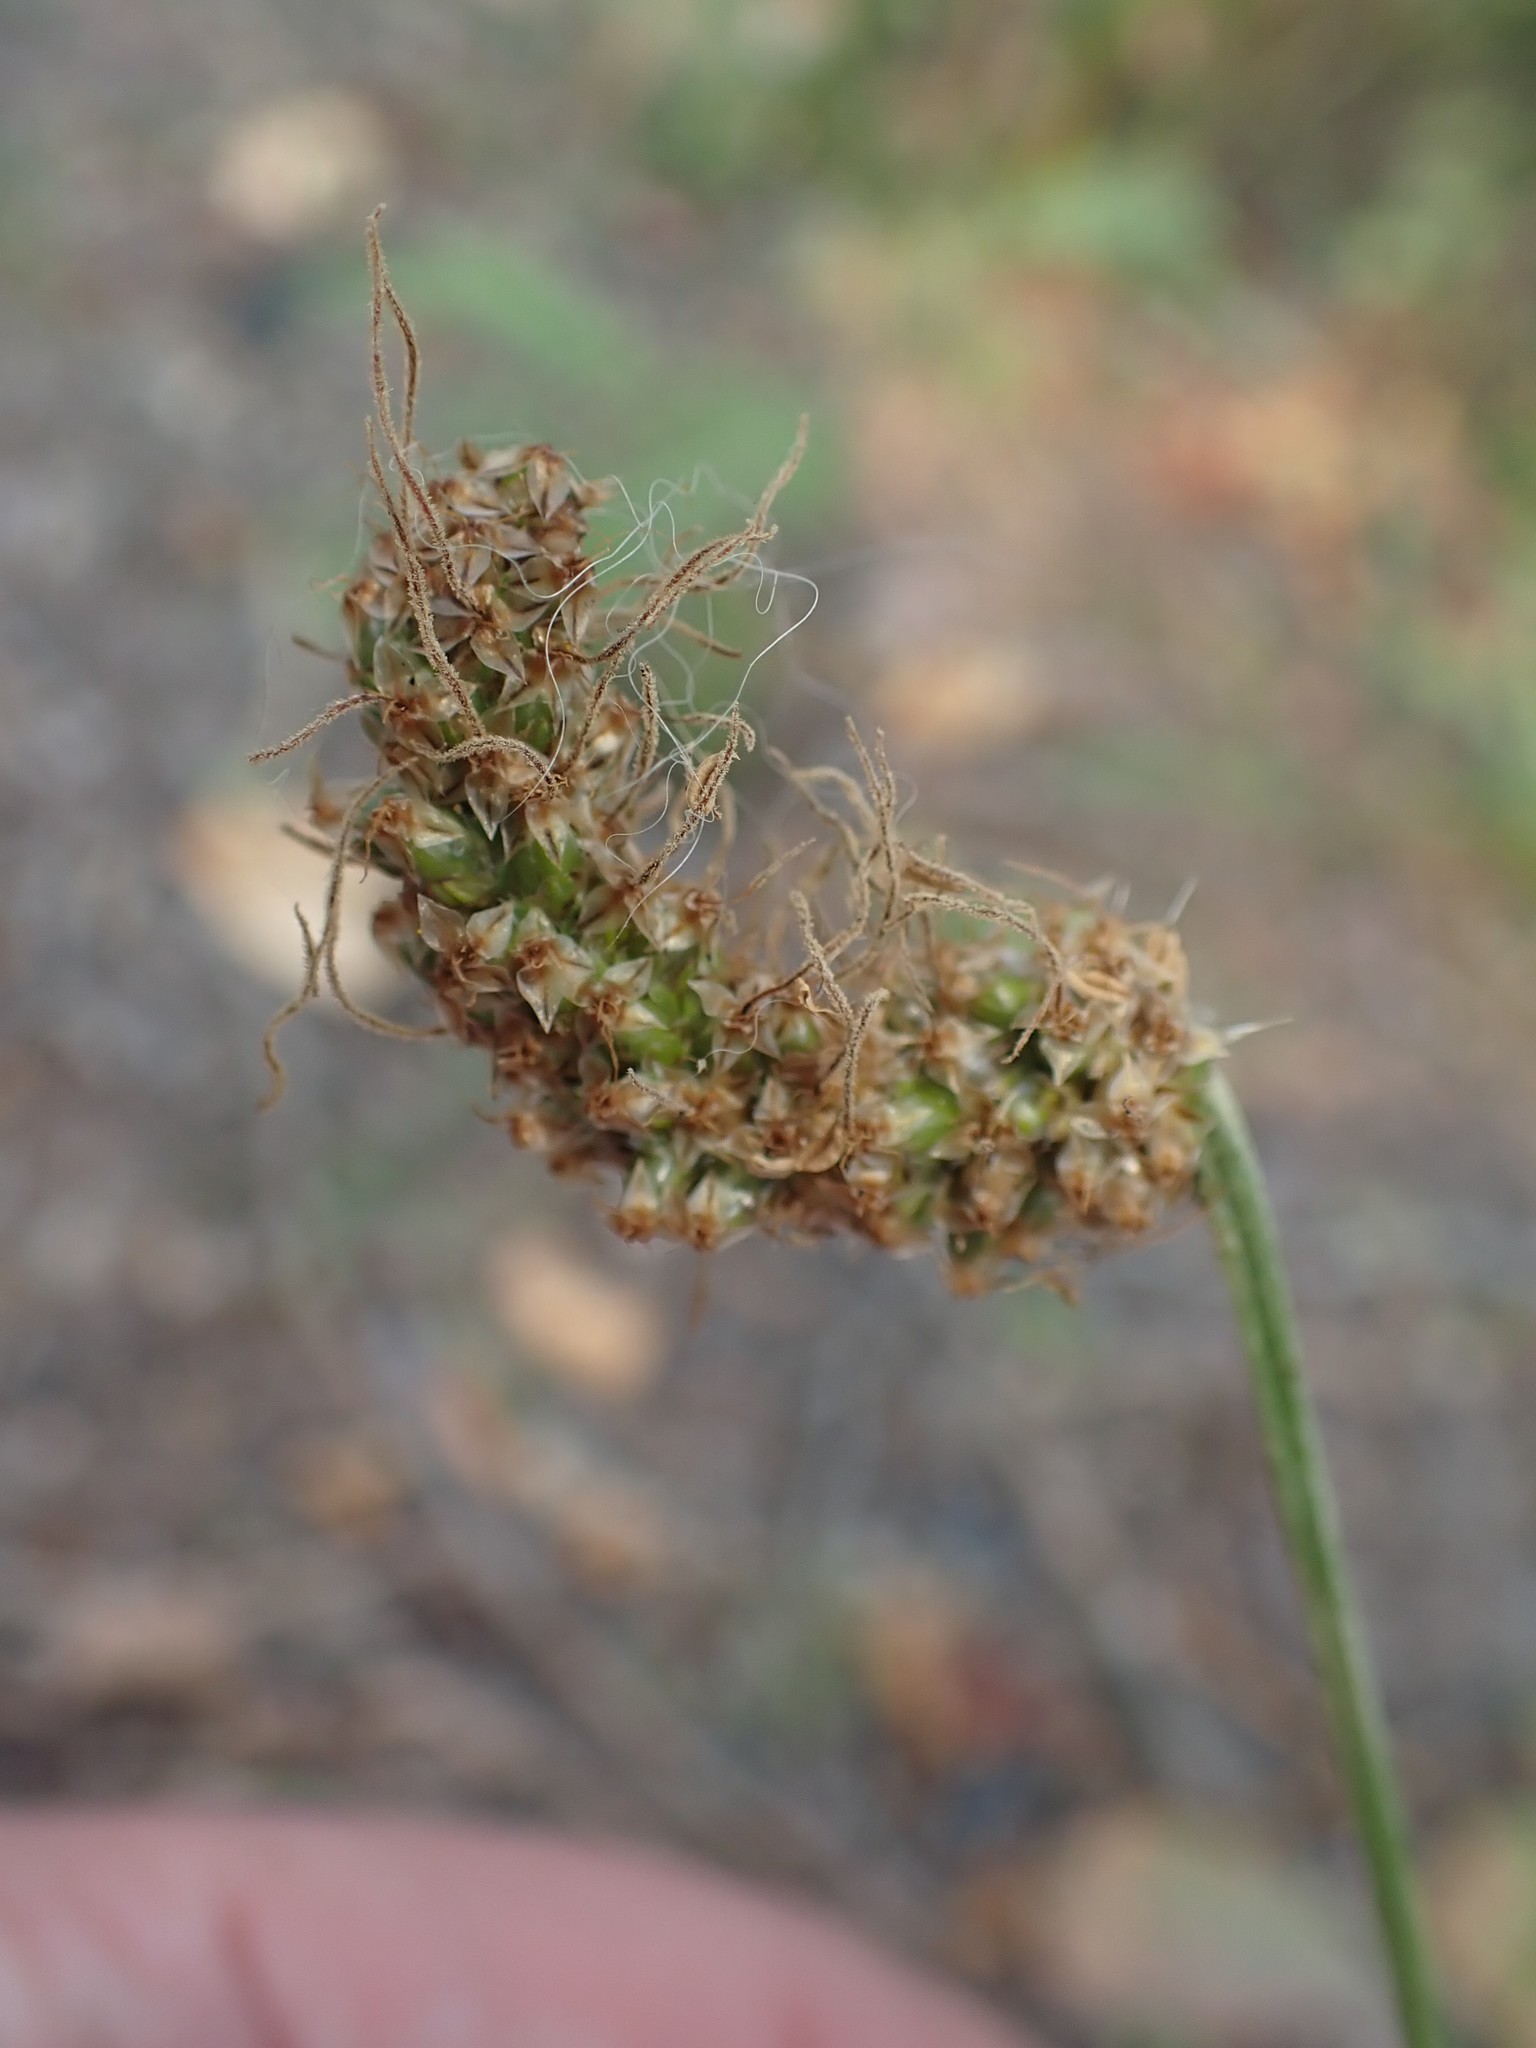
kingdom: Plantae
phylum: Tracheophyta
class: Magnoliopsida
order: Lamiales
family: Plantaginaceae
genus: Plantago
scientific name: Plantago lanceolata
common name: Ribwort plantain
